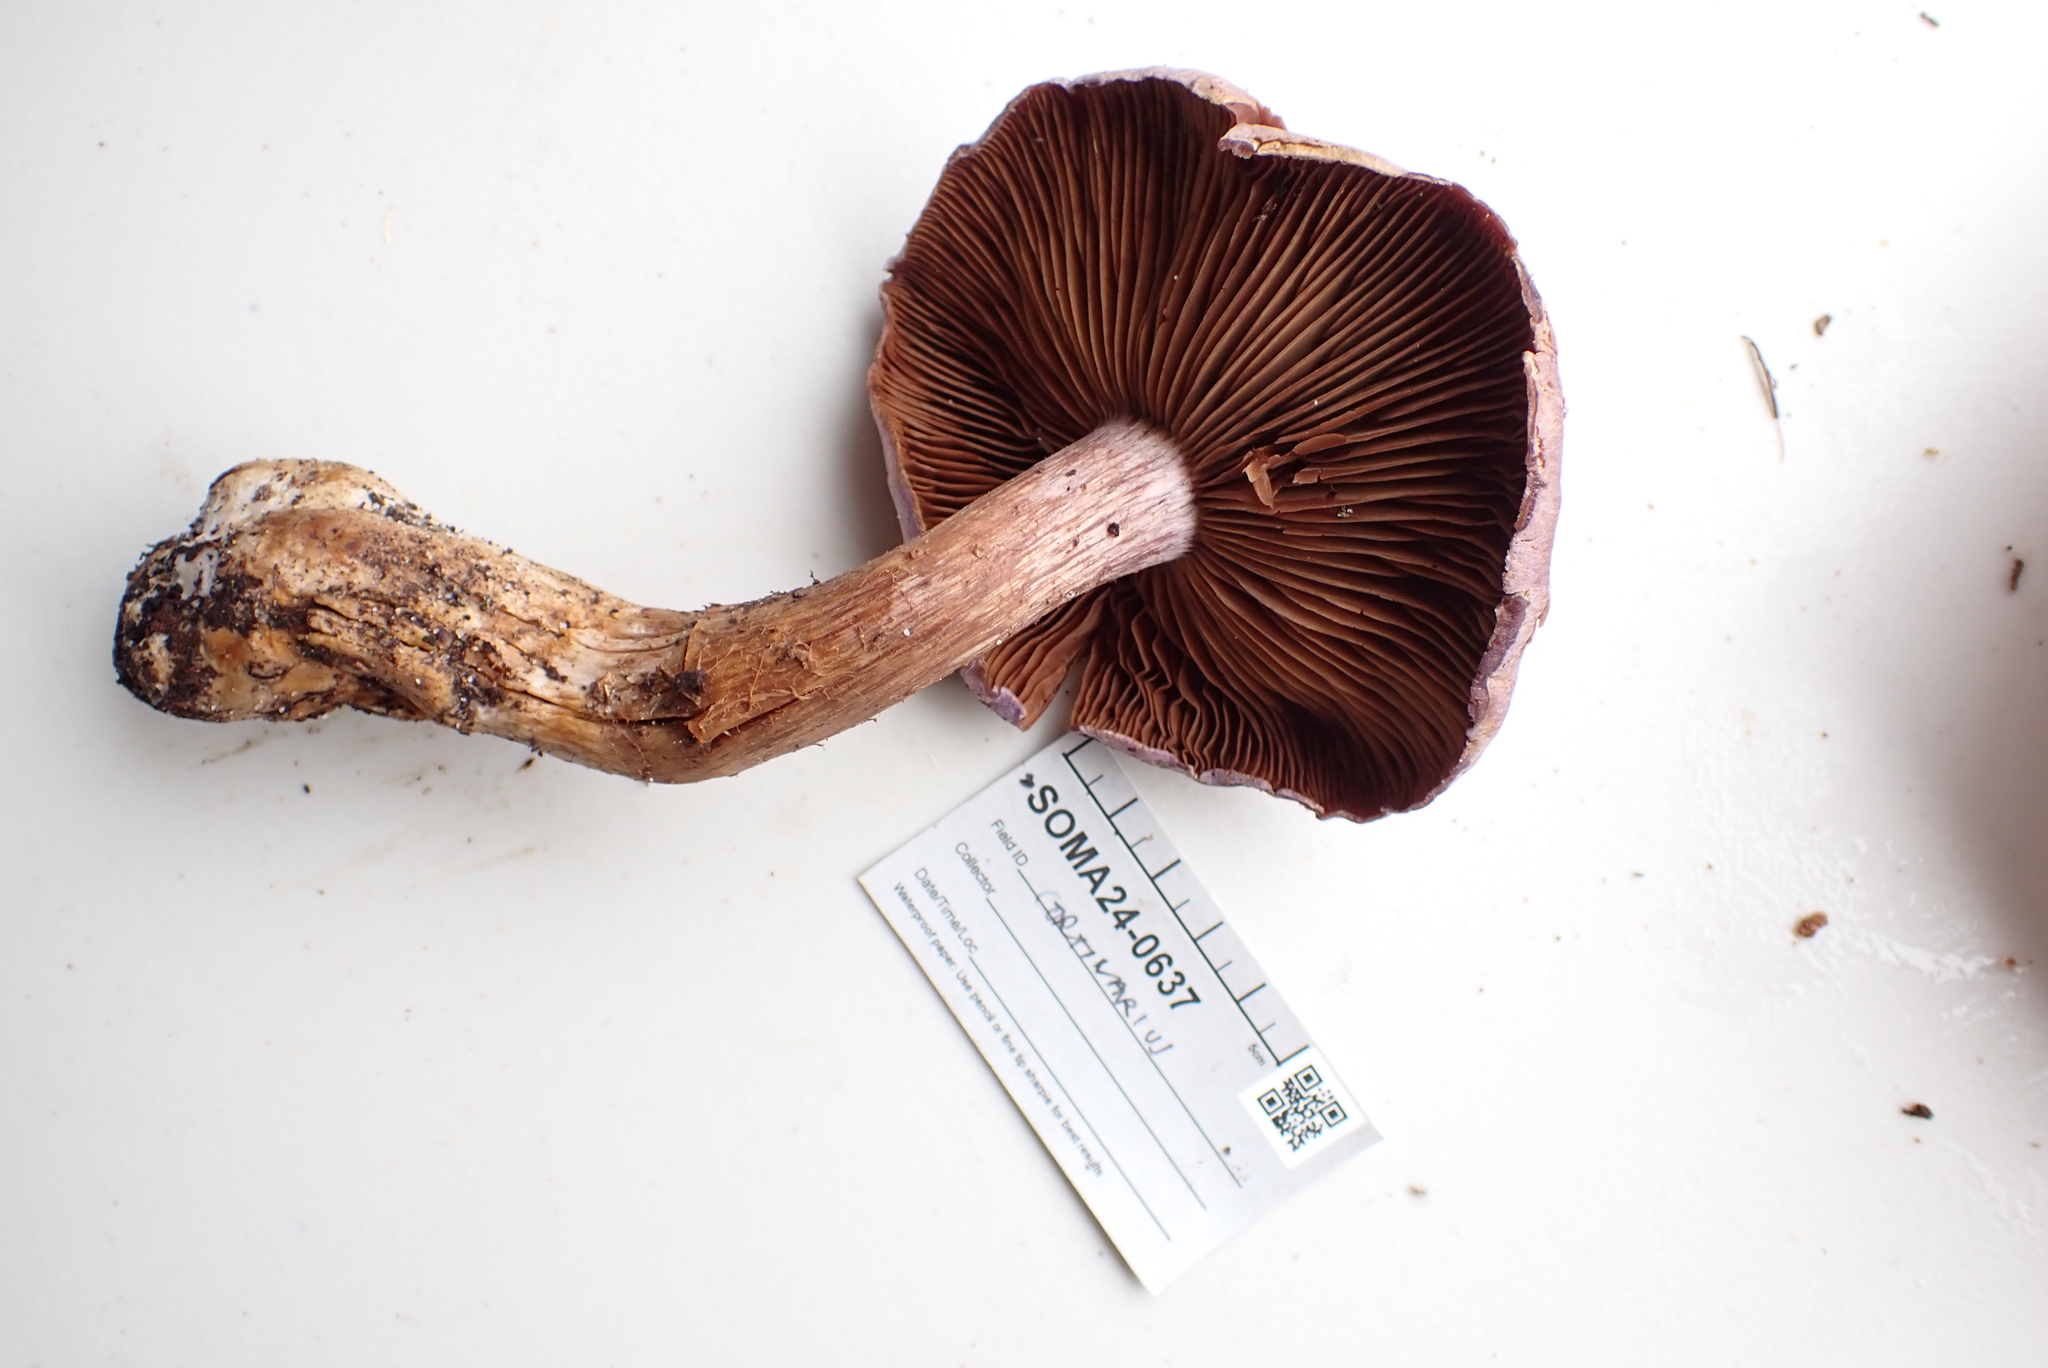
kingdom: Fungi
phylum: Basidiomycota
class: Agaricomycetes
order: Agaricales
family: Cortinariaceae
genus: Cortinarius
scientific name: Cortinarius traganus
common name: Gassy webcap
